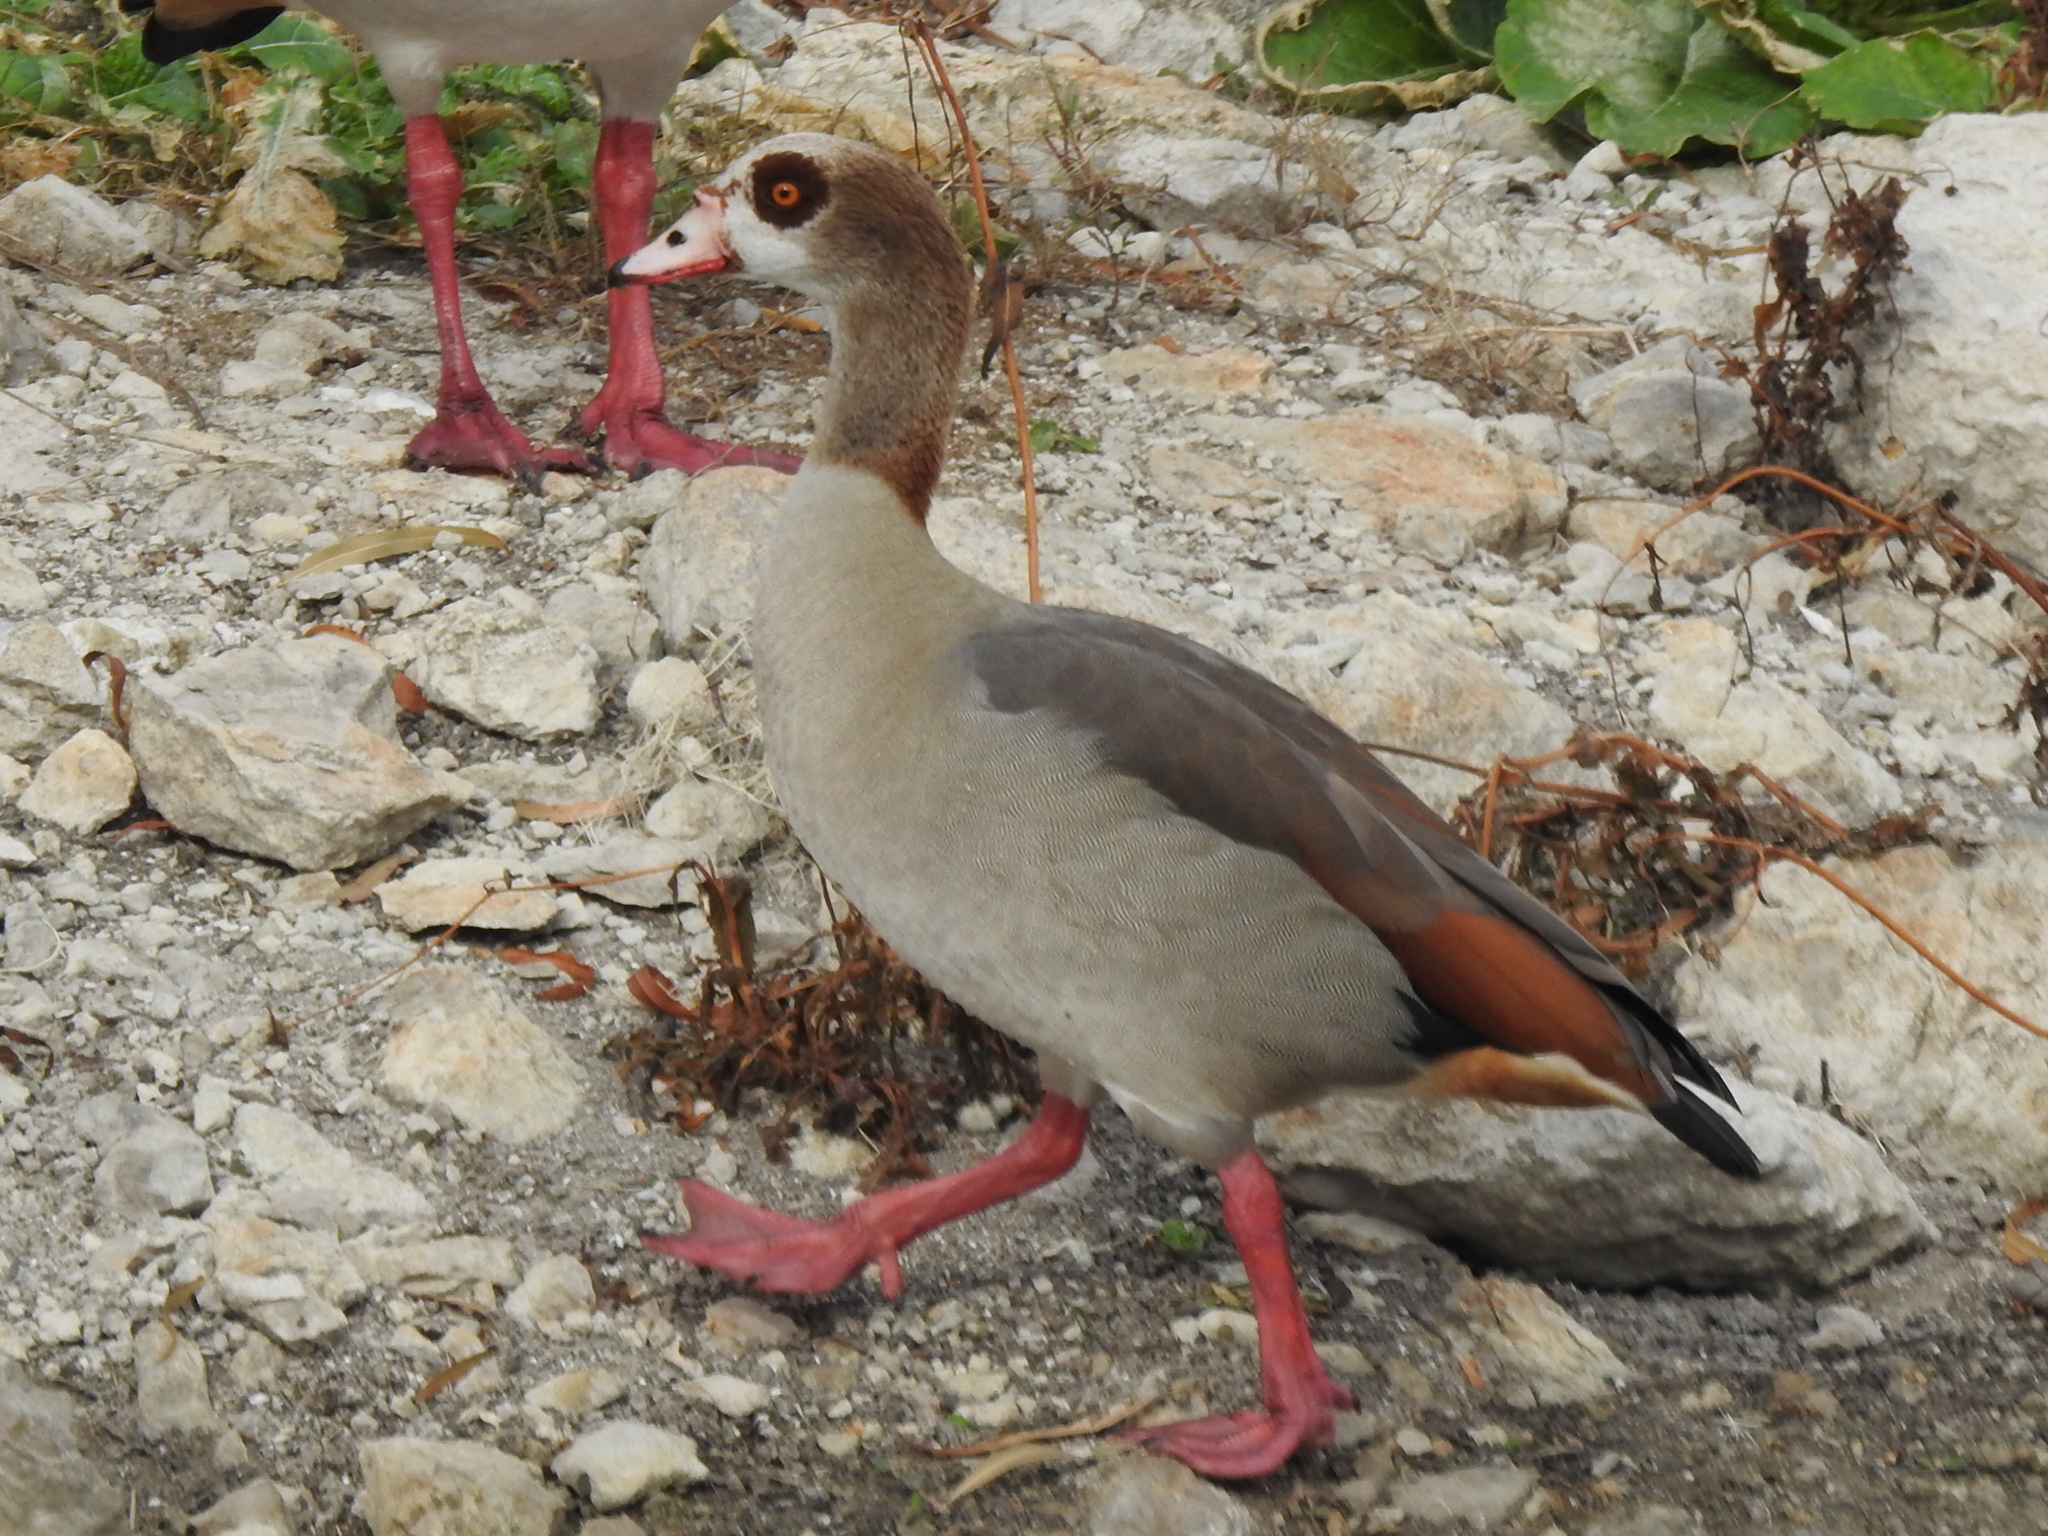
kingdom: Animalia
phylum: Chordata
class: Aves
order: Anseriformes
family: Anatidae
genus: Alopochen
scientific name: Alopochen aegyptiaca
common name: Egyptian goose
